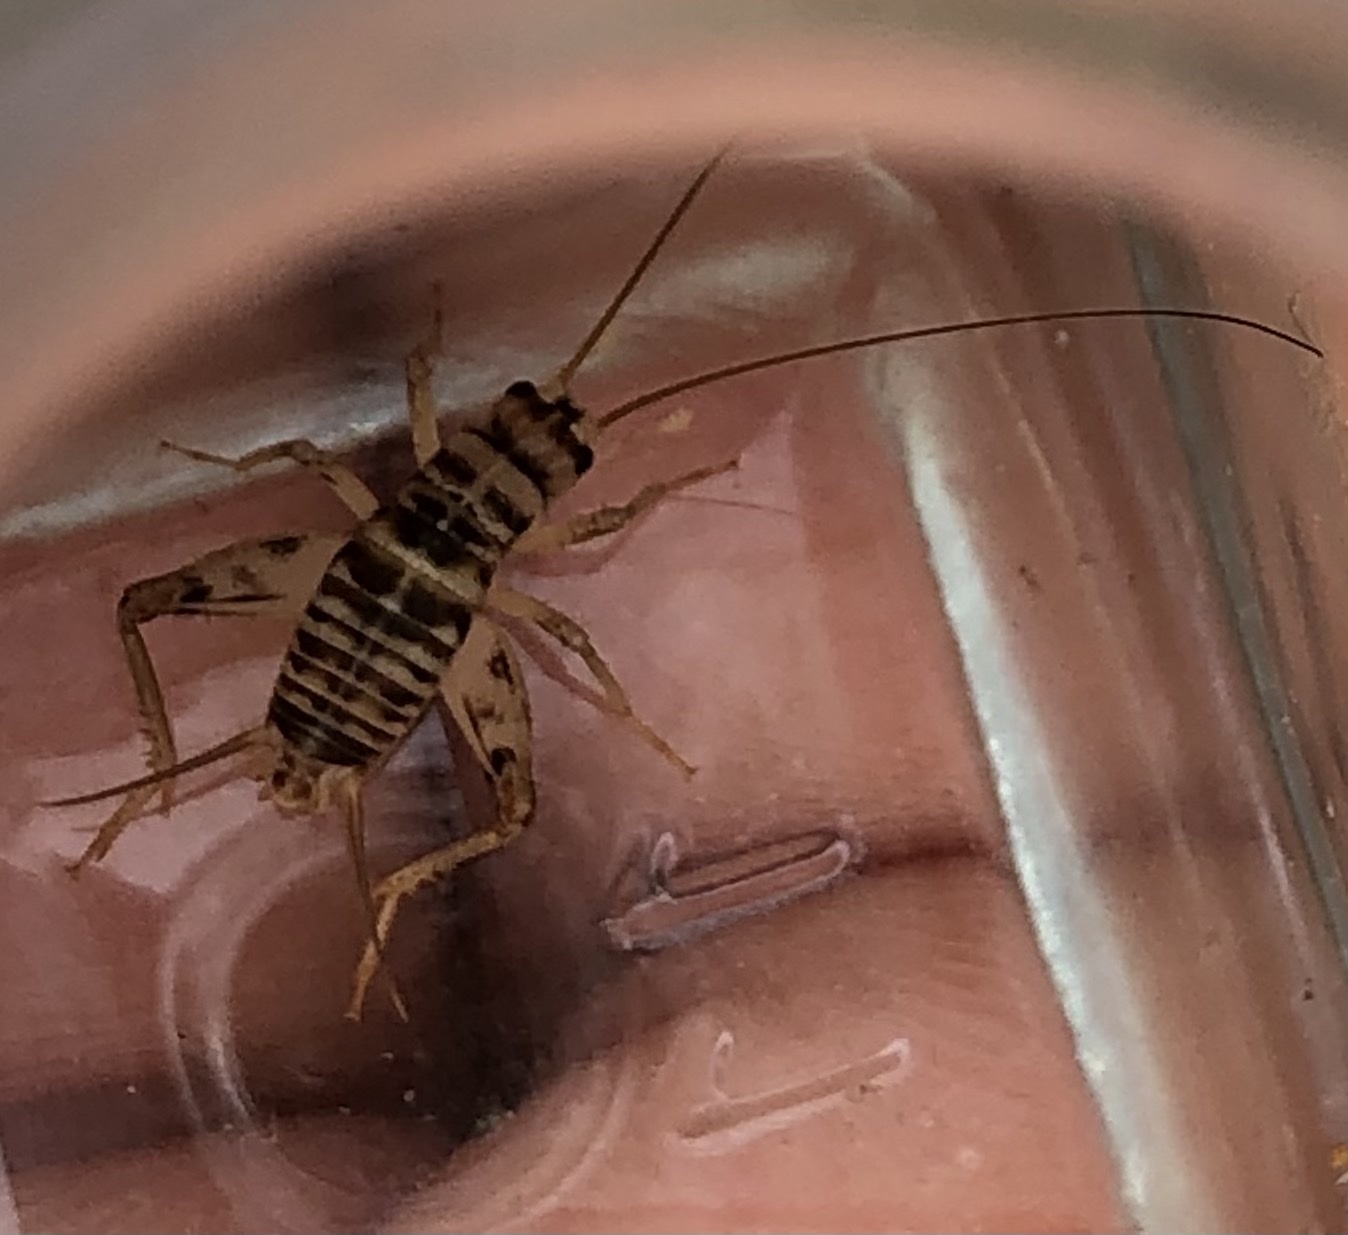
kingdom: Animalia
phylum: Arthropoda
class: Insecta
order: Orthoptera
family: Gryllidae
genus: Gryllomorpha
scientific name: Gryllomorpha uclensis
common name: Western crevice-cricket
